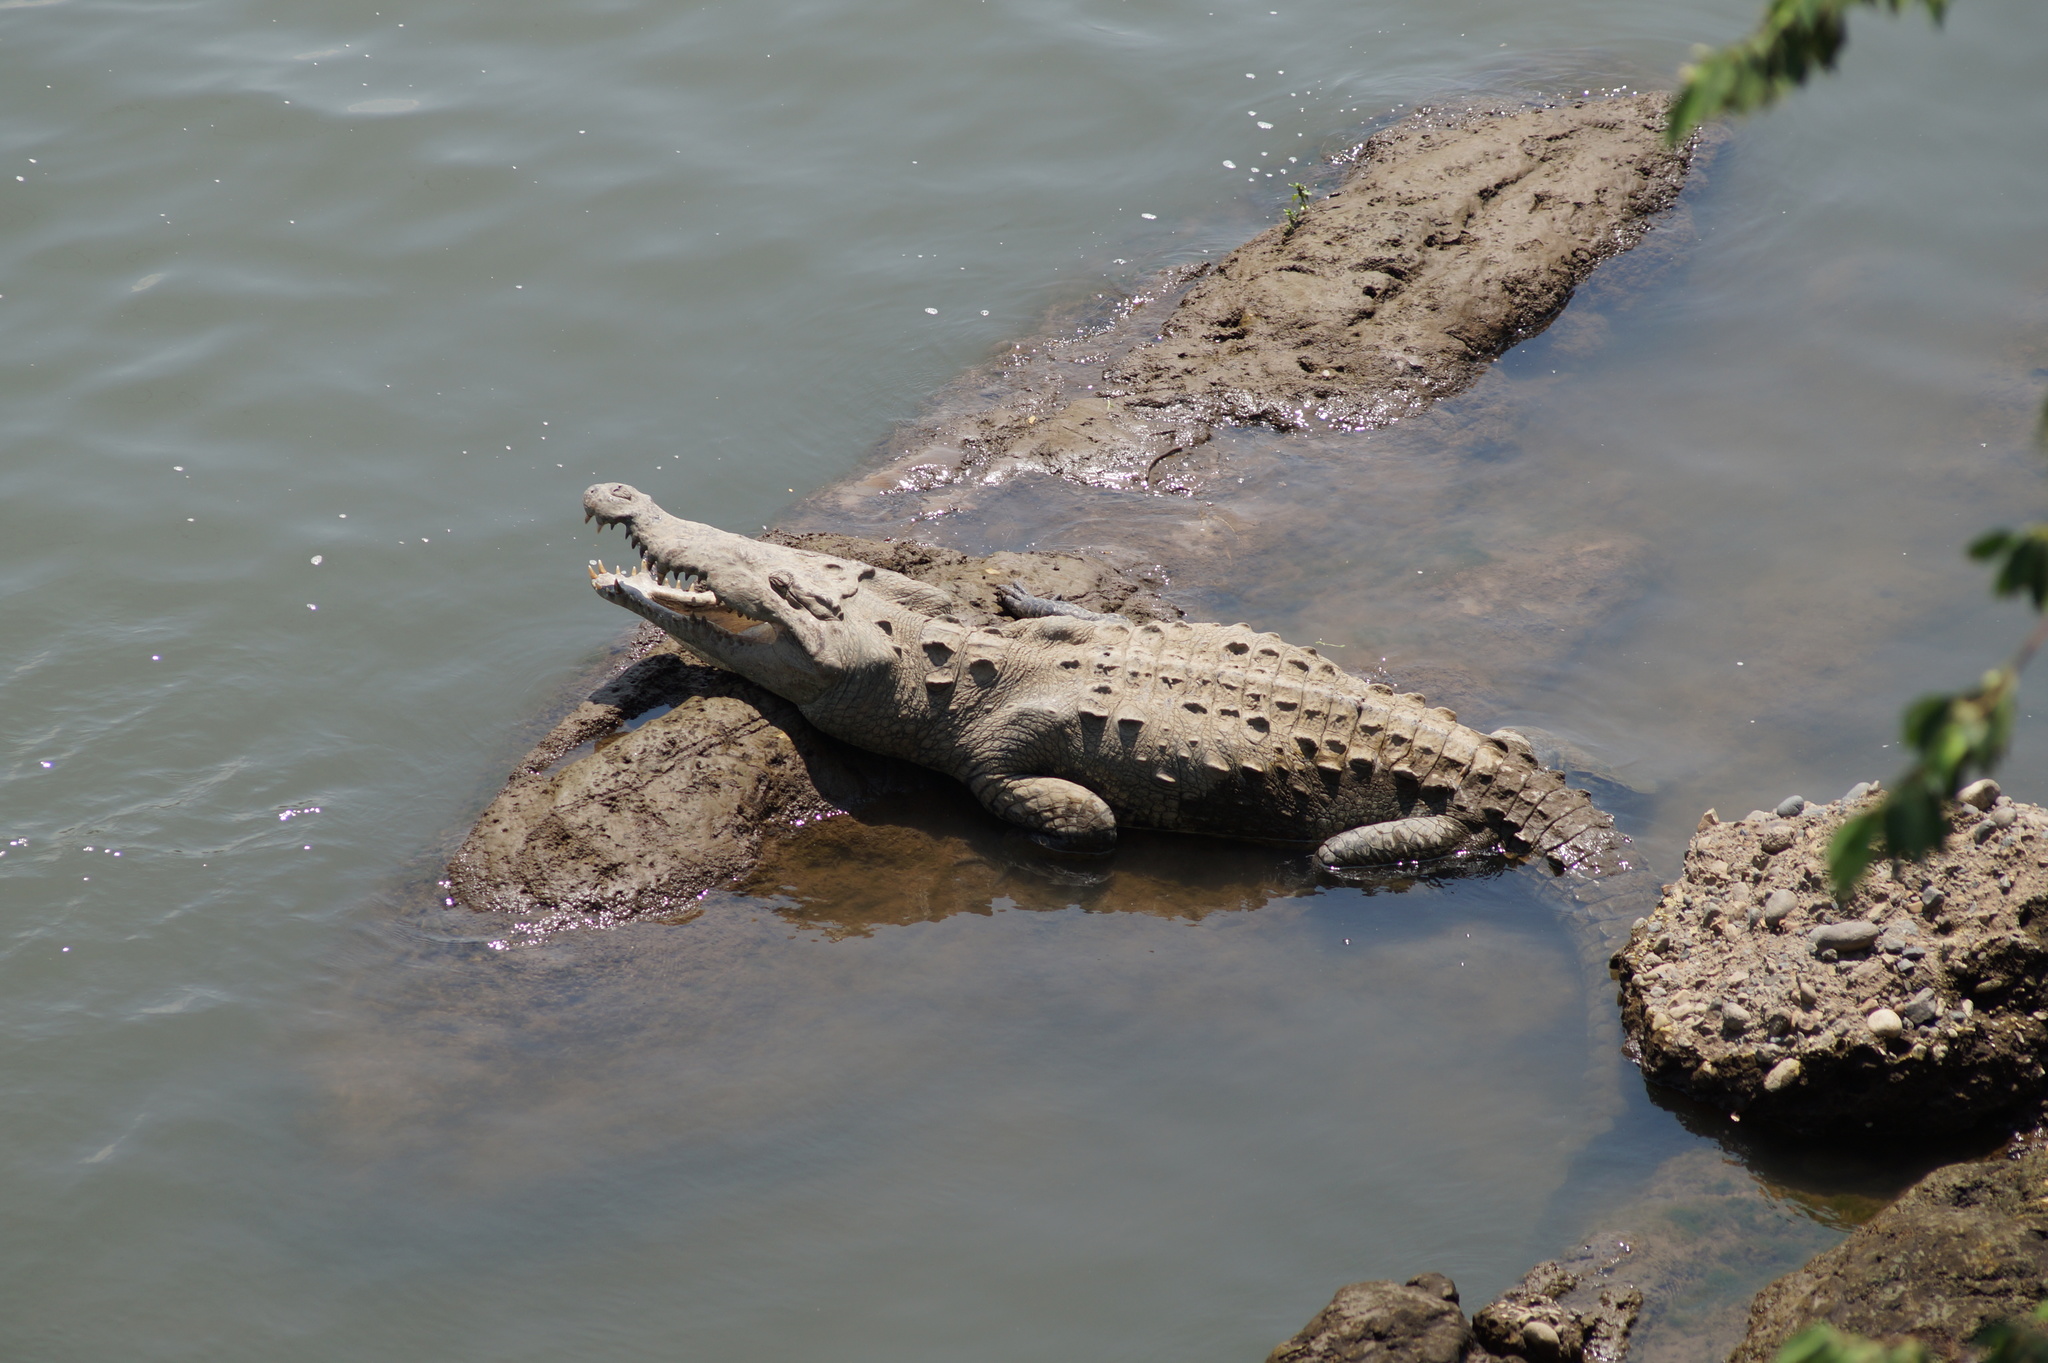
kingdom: Animalia
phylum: Chordata
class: Crocodylia
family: Crocodylidae
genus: Crocodylus
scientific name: Crocodylus acutus
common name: American crocodile
